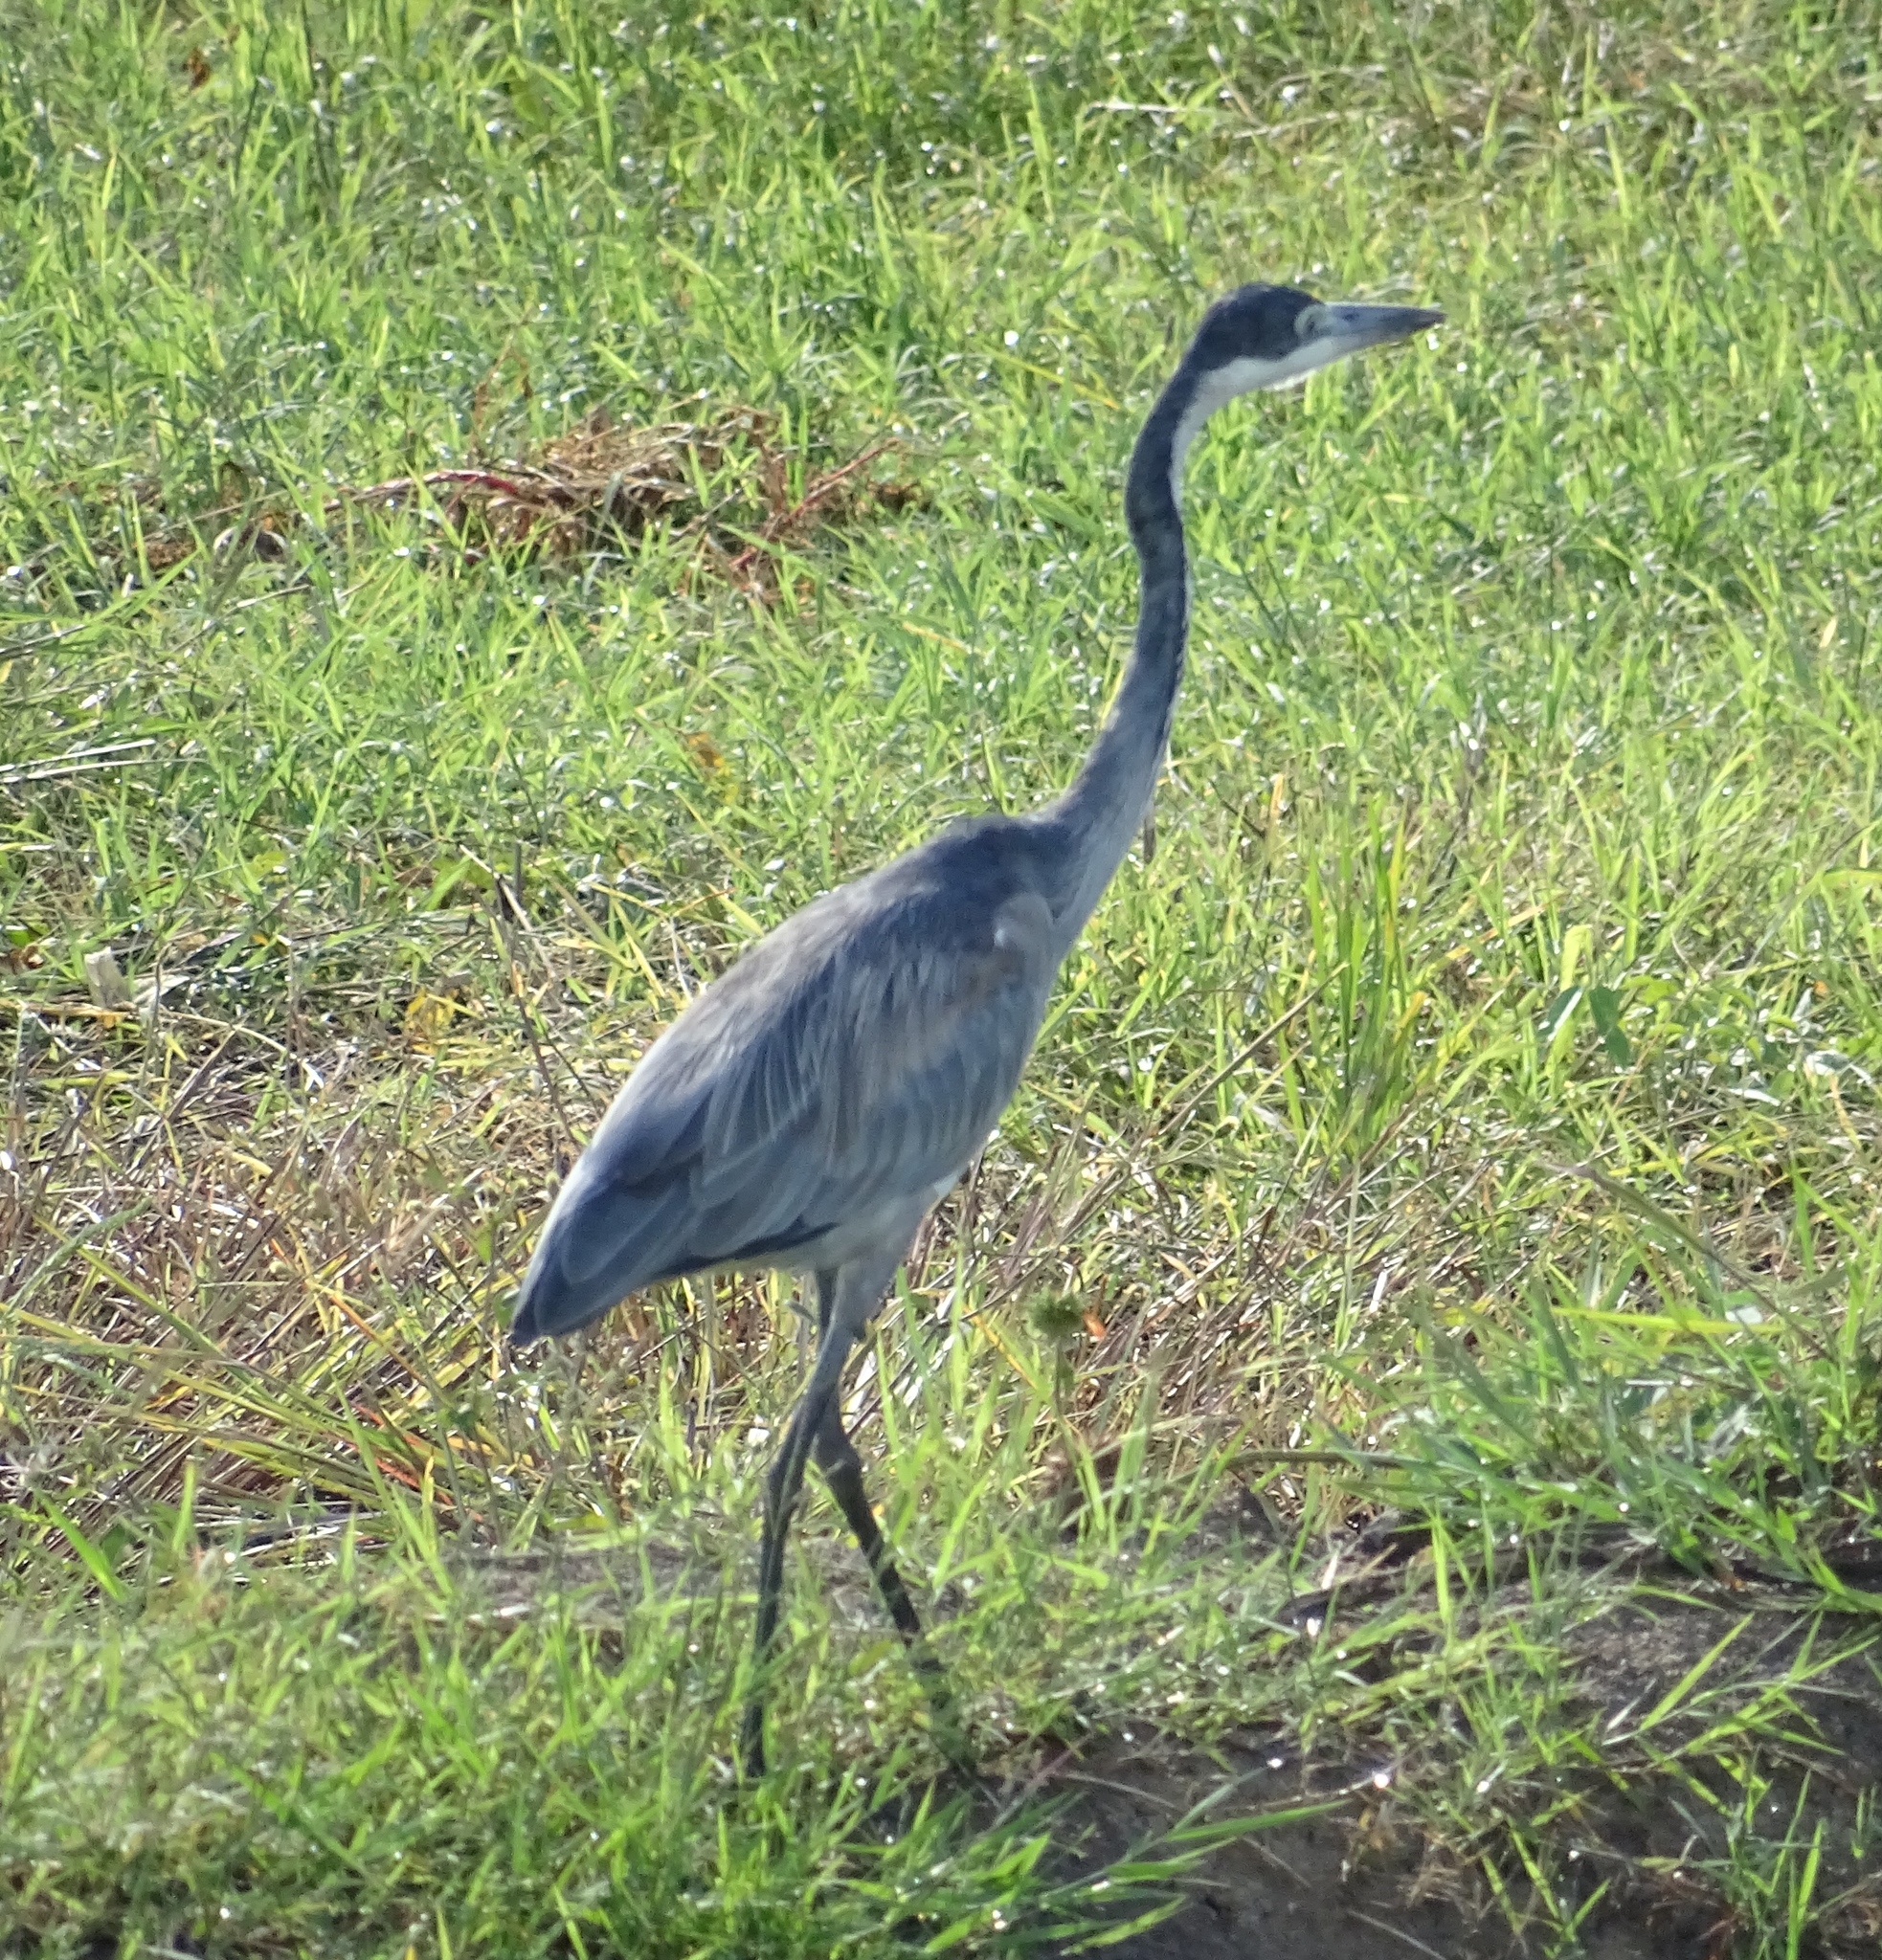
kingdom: Animalia
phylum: Chordata
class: Aves
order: Pelecaniformes
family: Ardeidae
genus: Ardea
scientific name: Ardea melanocephala
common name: Black-headed heron
